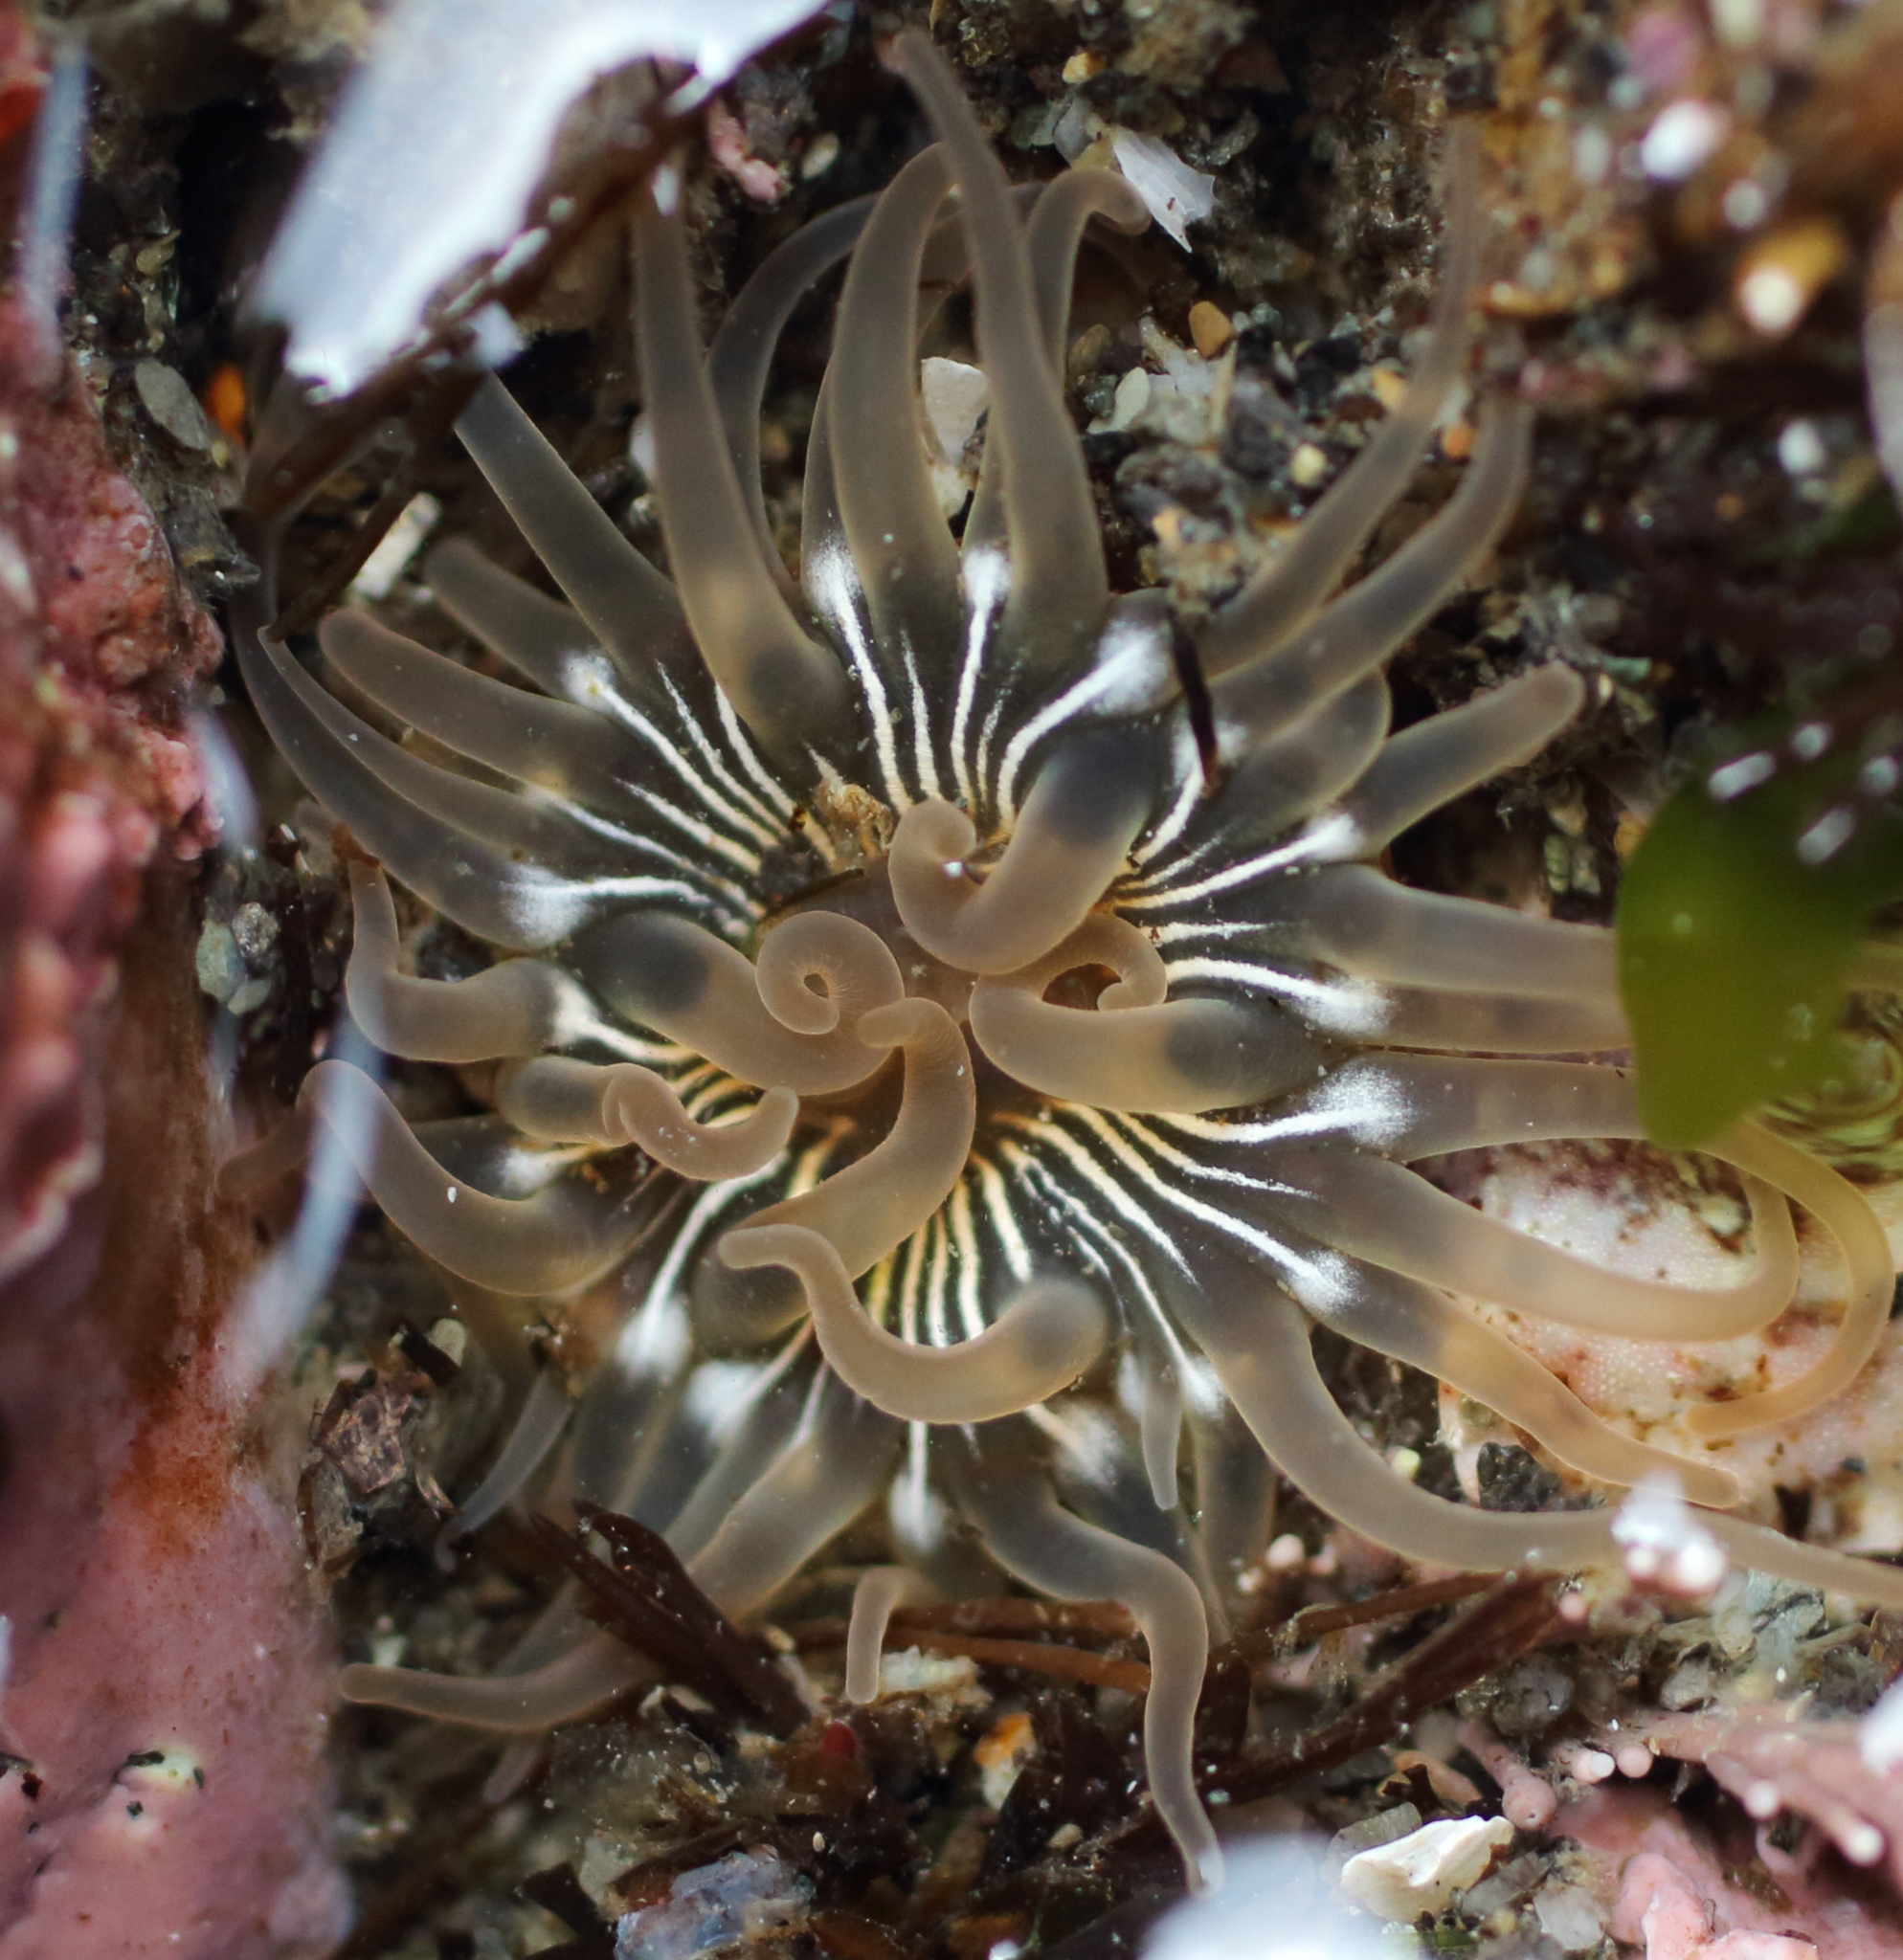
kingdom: Animalia
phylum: Cnidaria
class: Anthozoa
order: Actiniaria
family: Actiniidae
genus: Aulactinia
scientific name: Aulactinia incubans
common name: Incubating anemone
